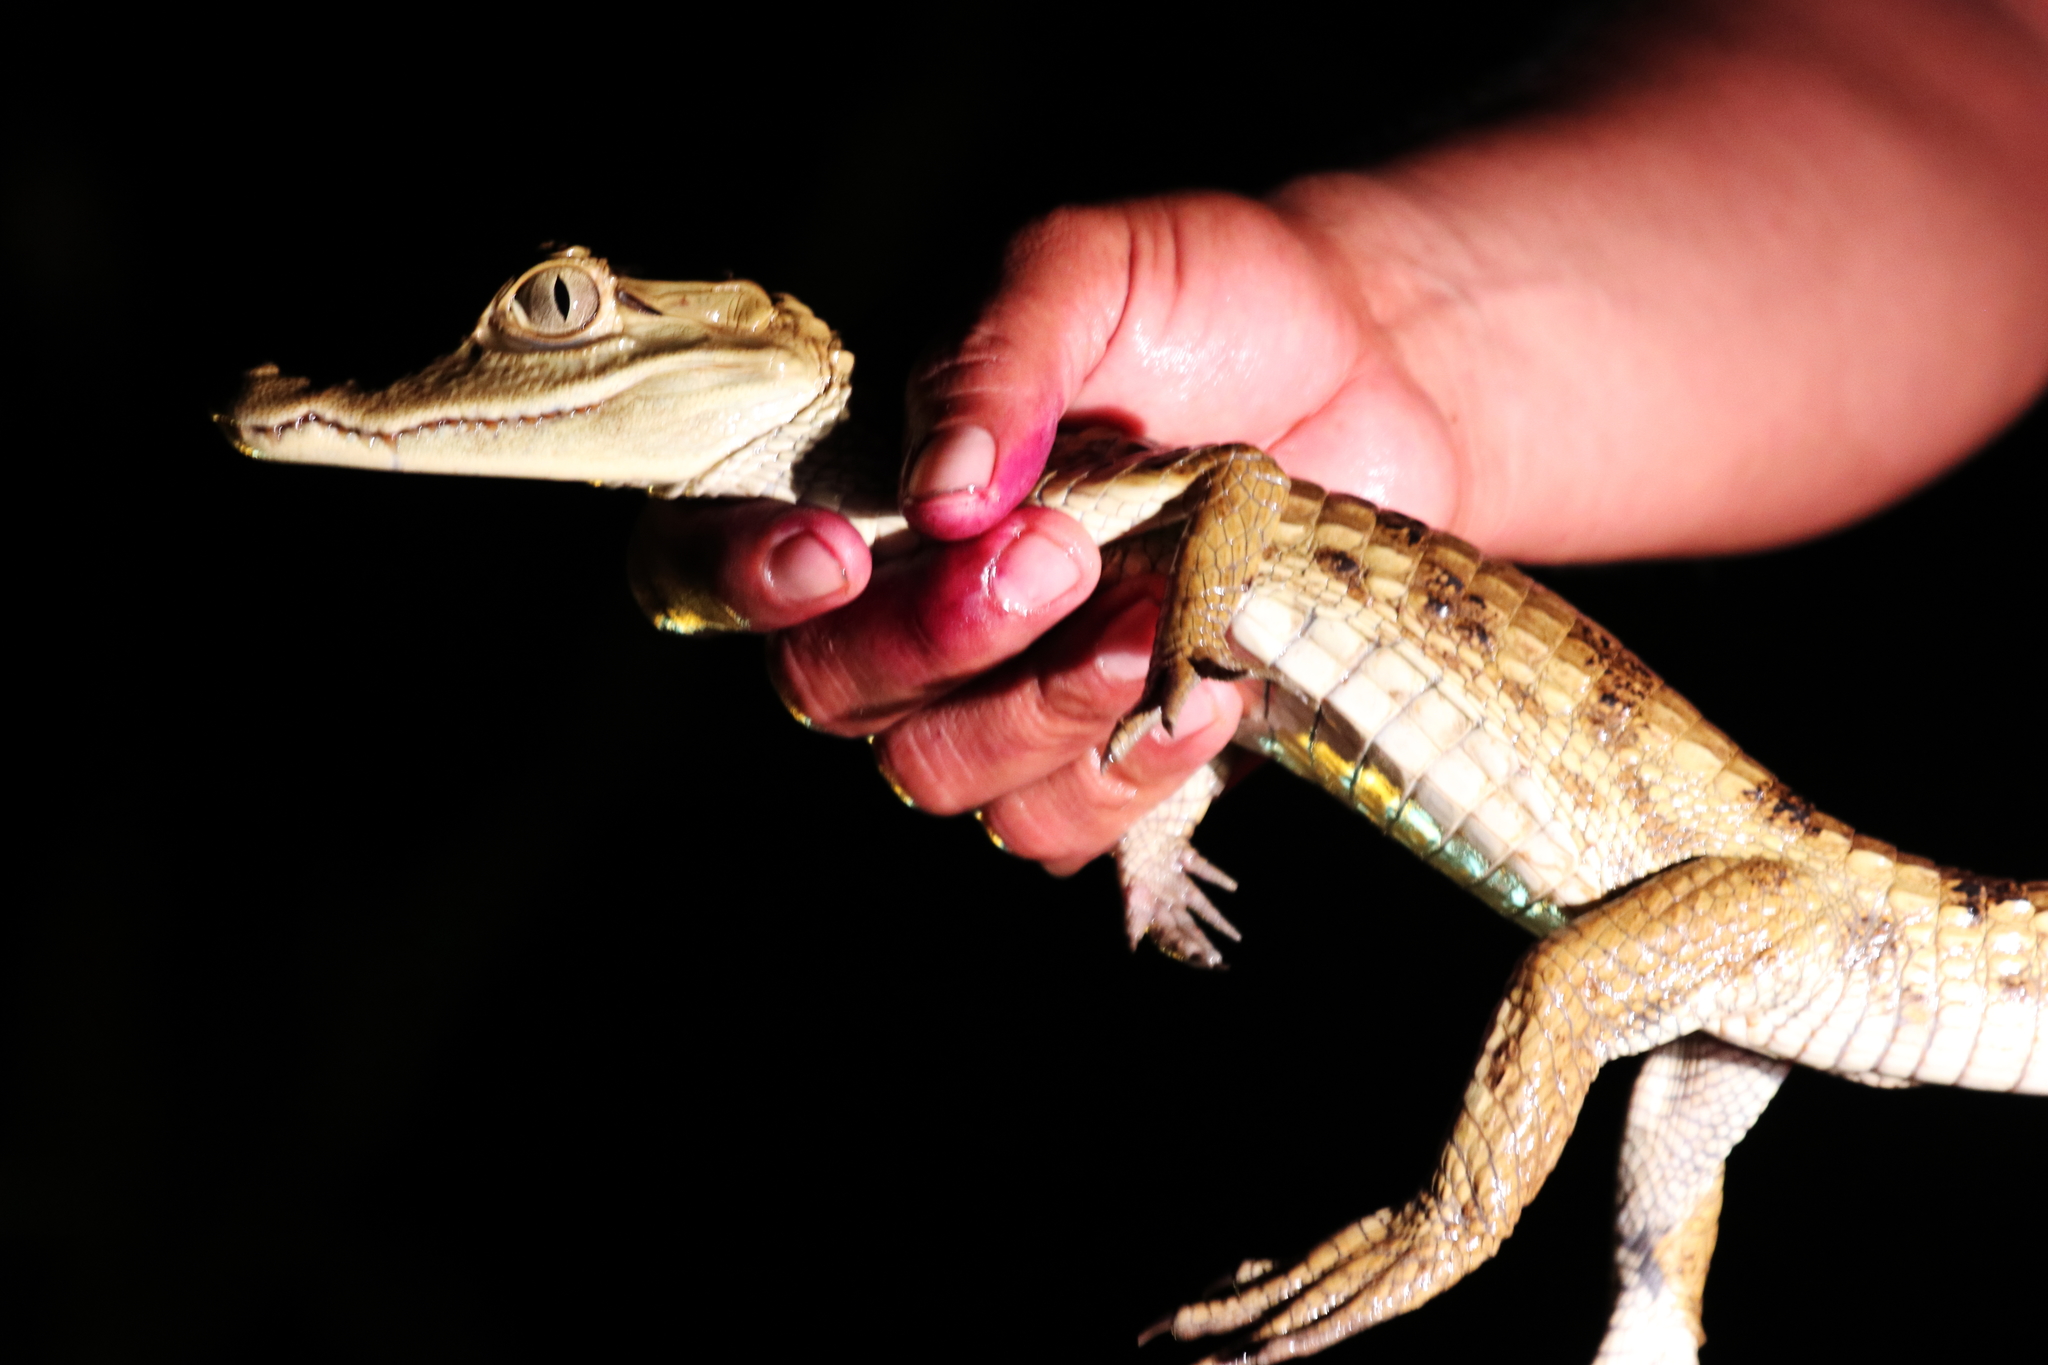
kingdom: Animalia
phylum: Chordata
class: Crocodylia
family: Alligatoridae
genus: Caiman
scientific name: Caiman crocodilus
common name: Common caiman
